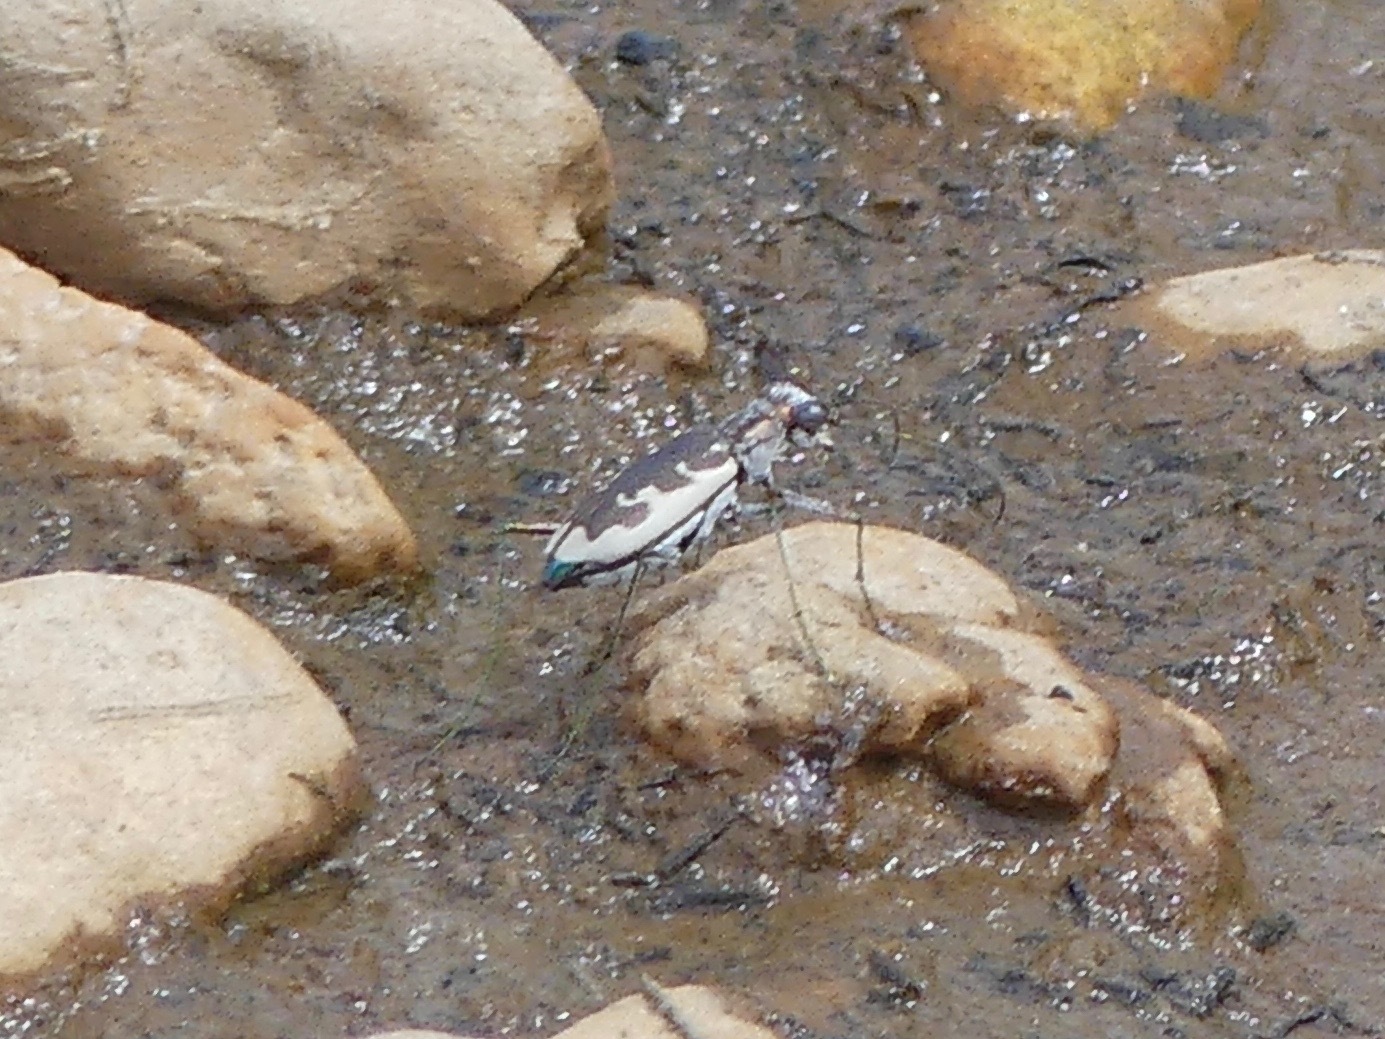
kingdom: Animalia
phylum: Arthropoda
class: Insecta
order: Coleoptera
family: Carabidae
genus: Ellipsoptera
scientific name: Ellipsoptera wapleri
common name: White-sand tiger beetle
